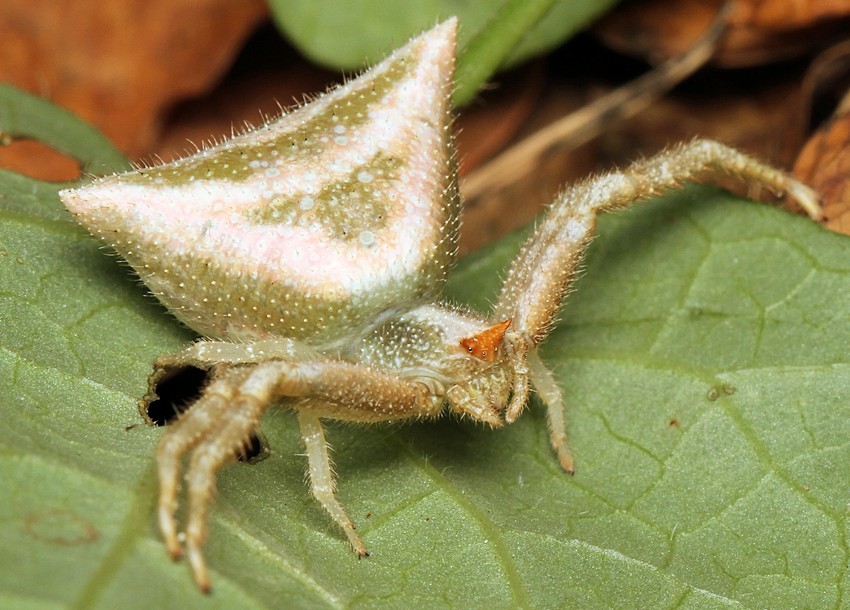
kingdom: Animalia
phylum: Arthropoda
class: Arachnida
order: Araneae
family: Thomisidae
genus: Thomisus
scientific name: Thomisus granulatus
